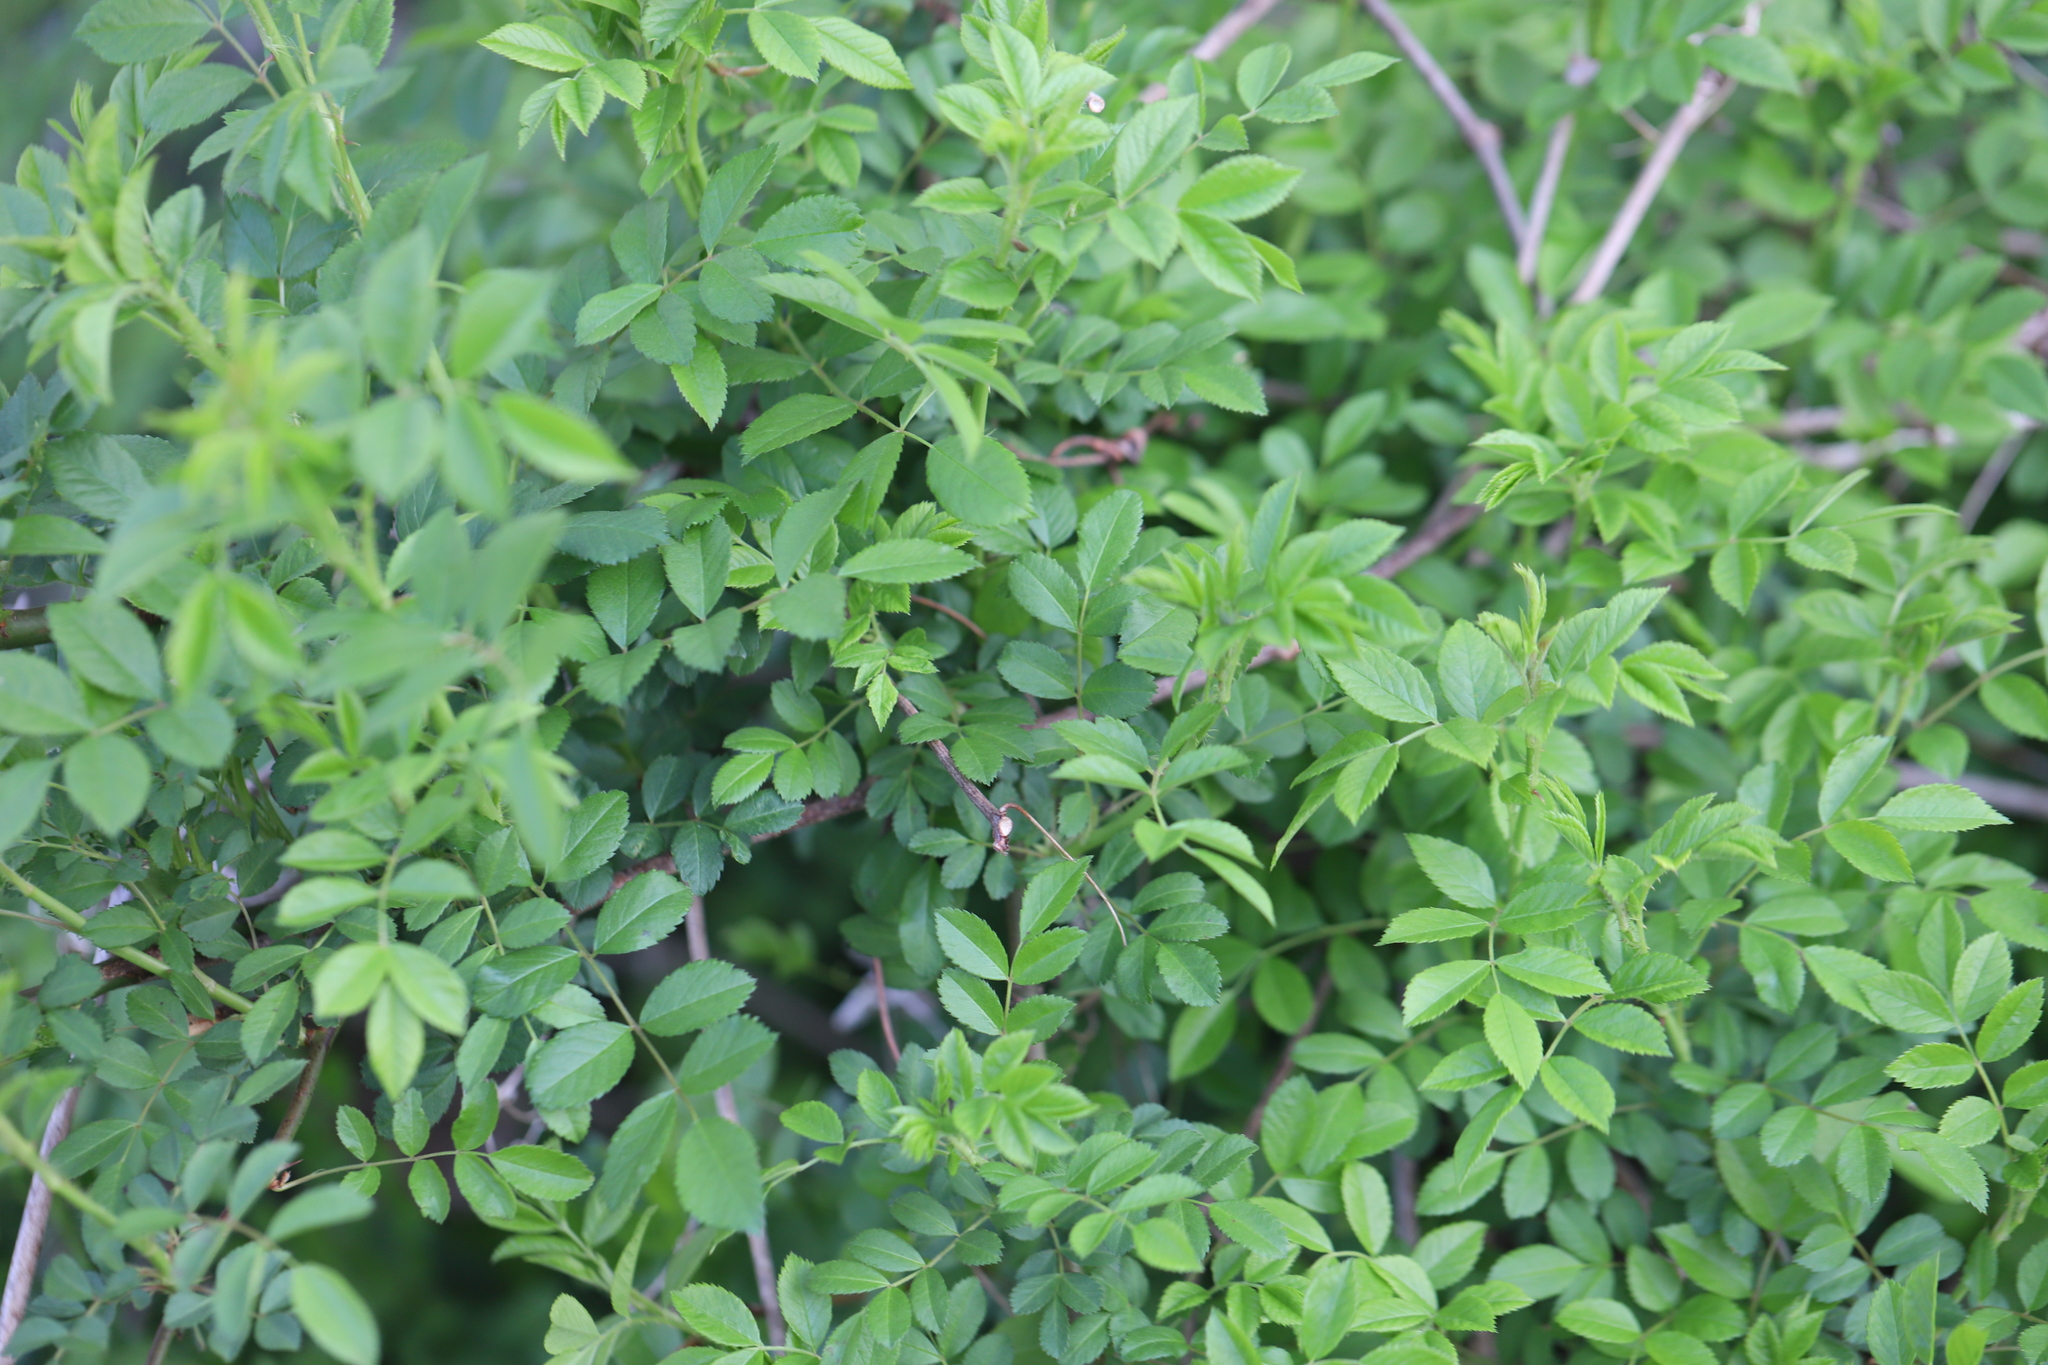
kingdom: Plantae
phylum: Tracheophyta
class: Magnoliopsida
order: Rosales
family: Rosaceae
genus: Rosa
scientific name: Rosa multiflora
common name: Multiflora rose
